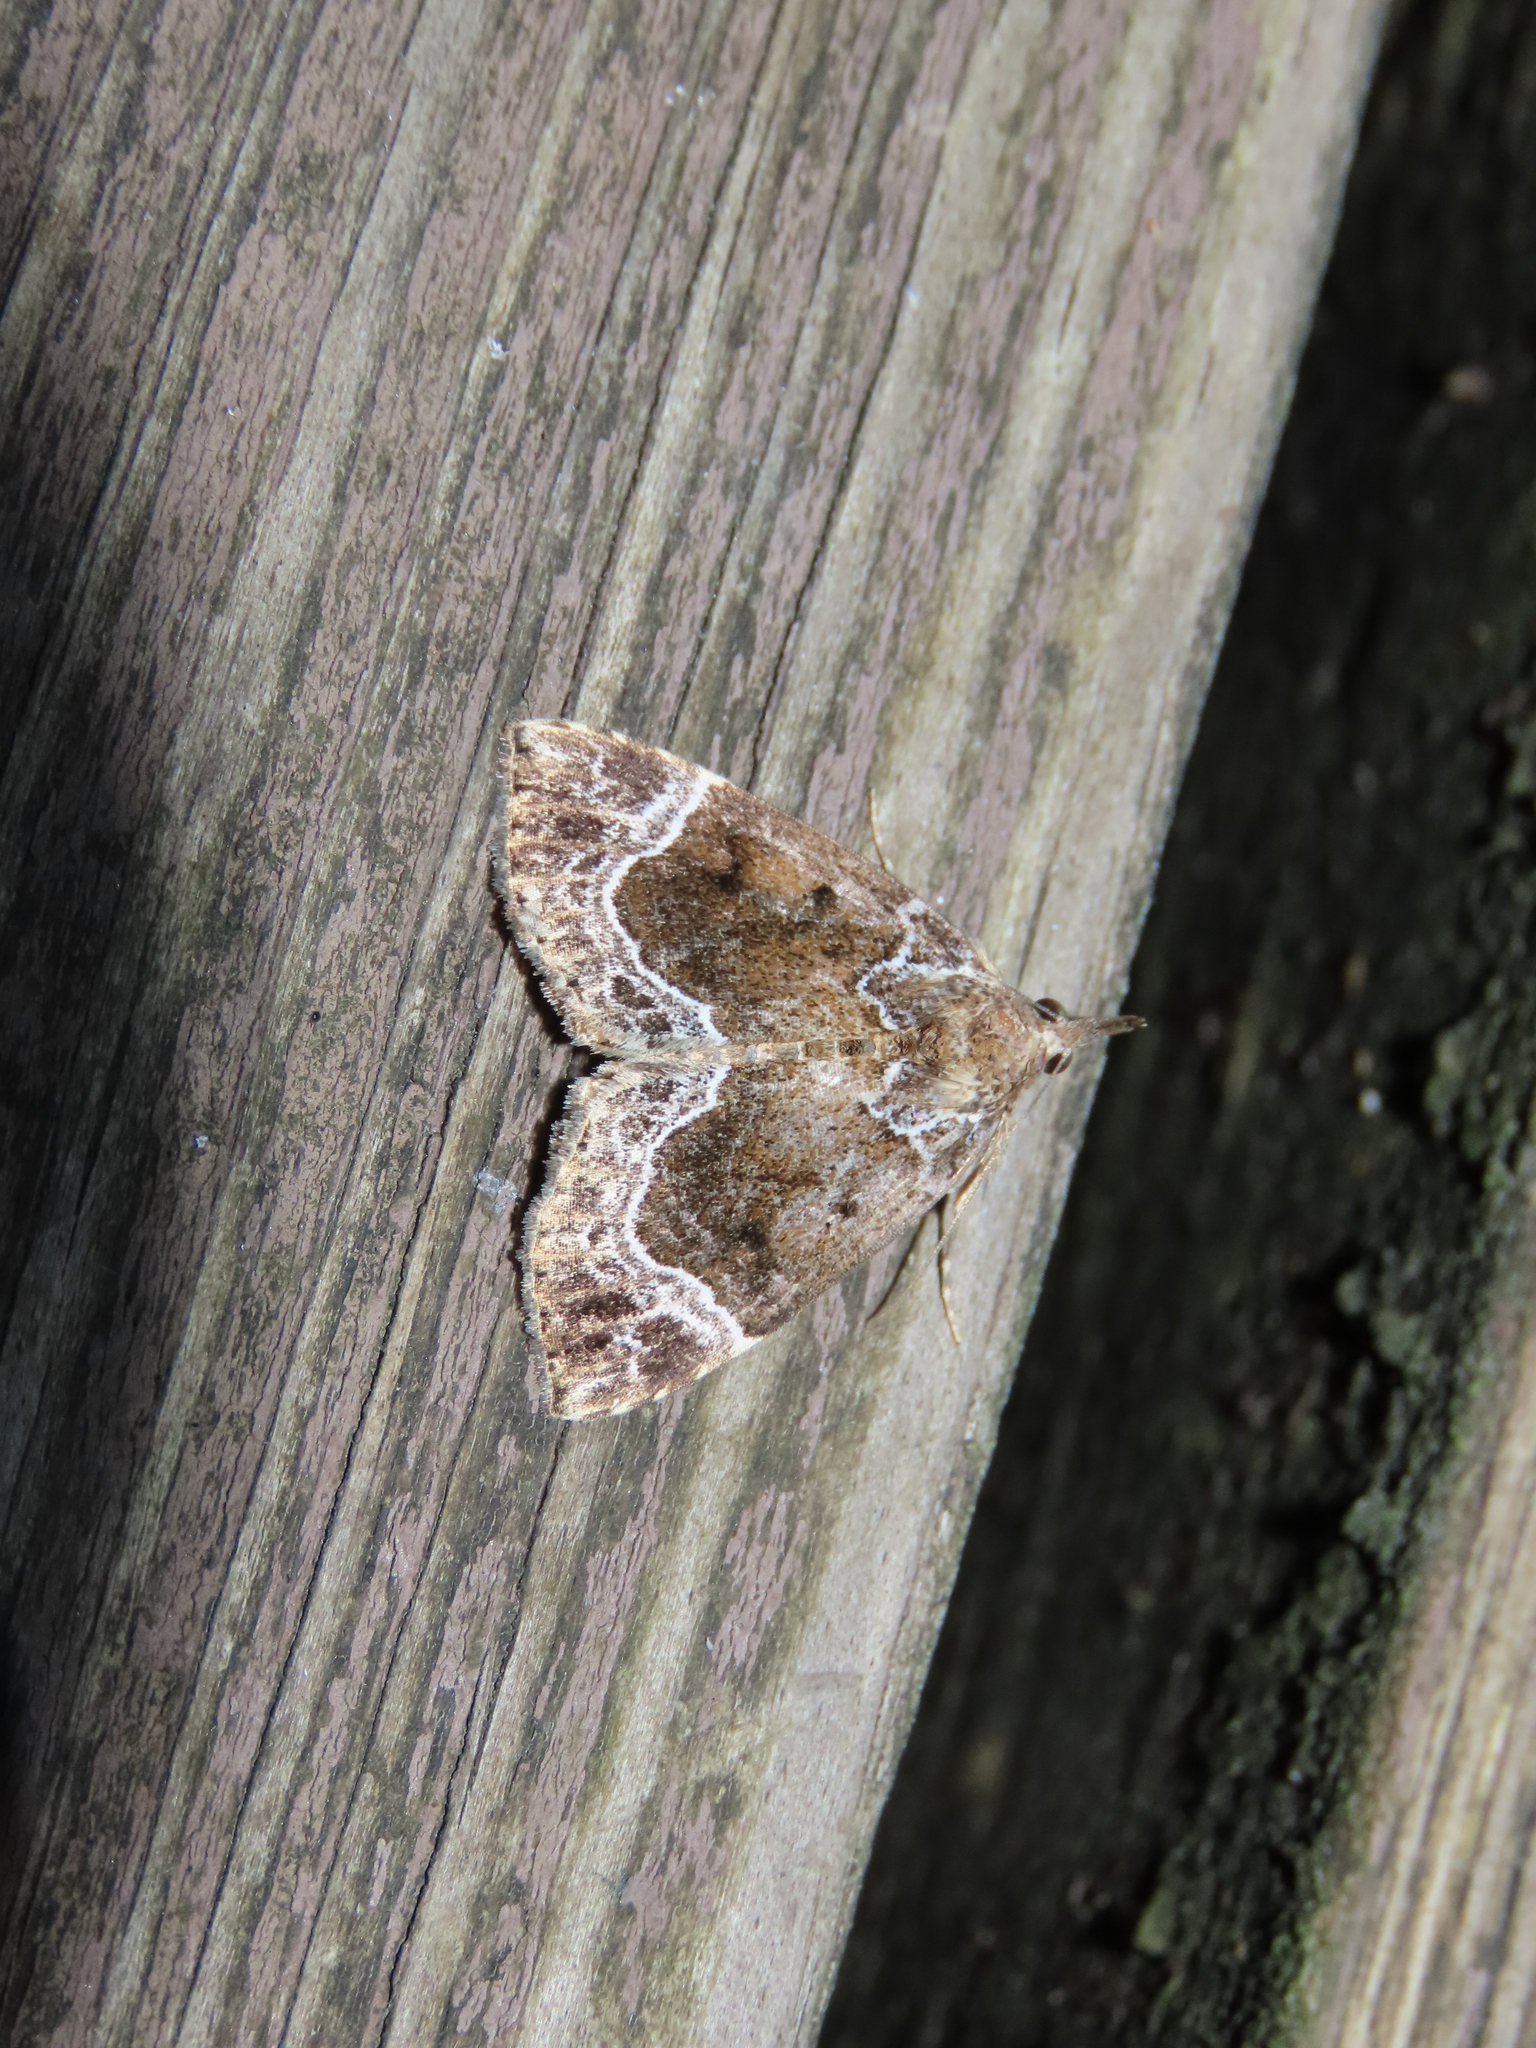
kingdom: Animalia
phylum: Arthropoda
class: Insecta
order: Lepidoptera
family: Erebidae
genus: Hypena
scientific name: Hypena abalienalis
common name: White-lined snout
